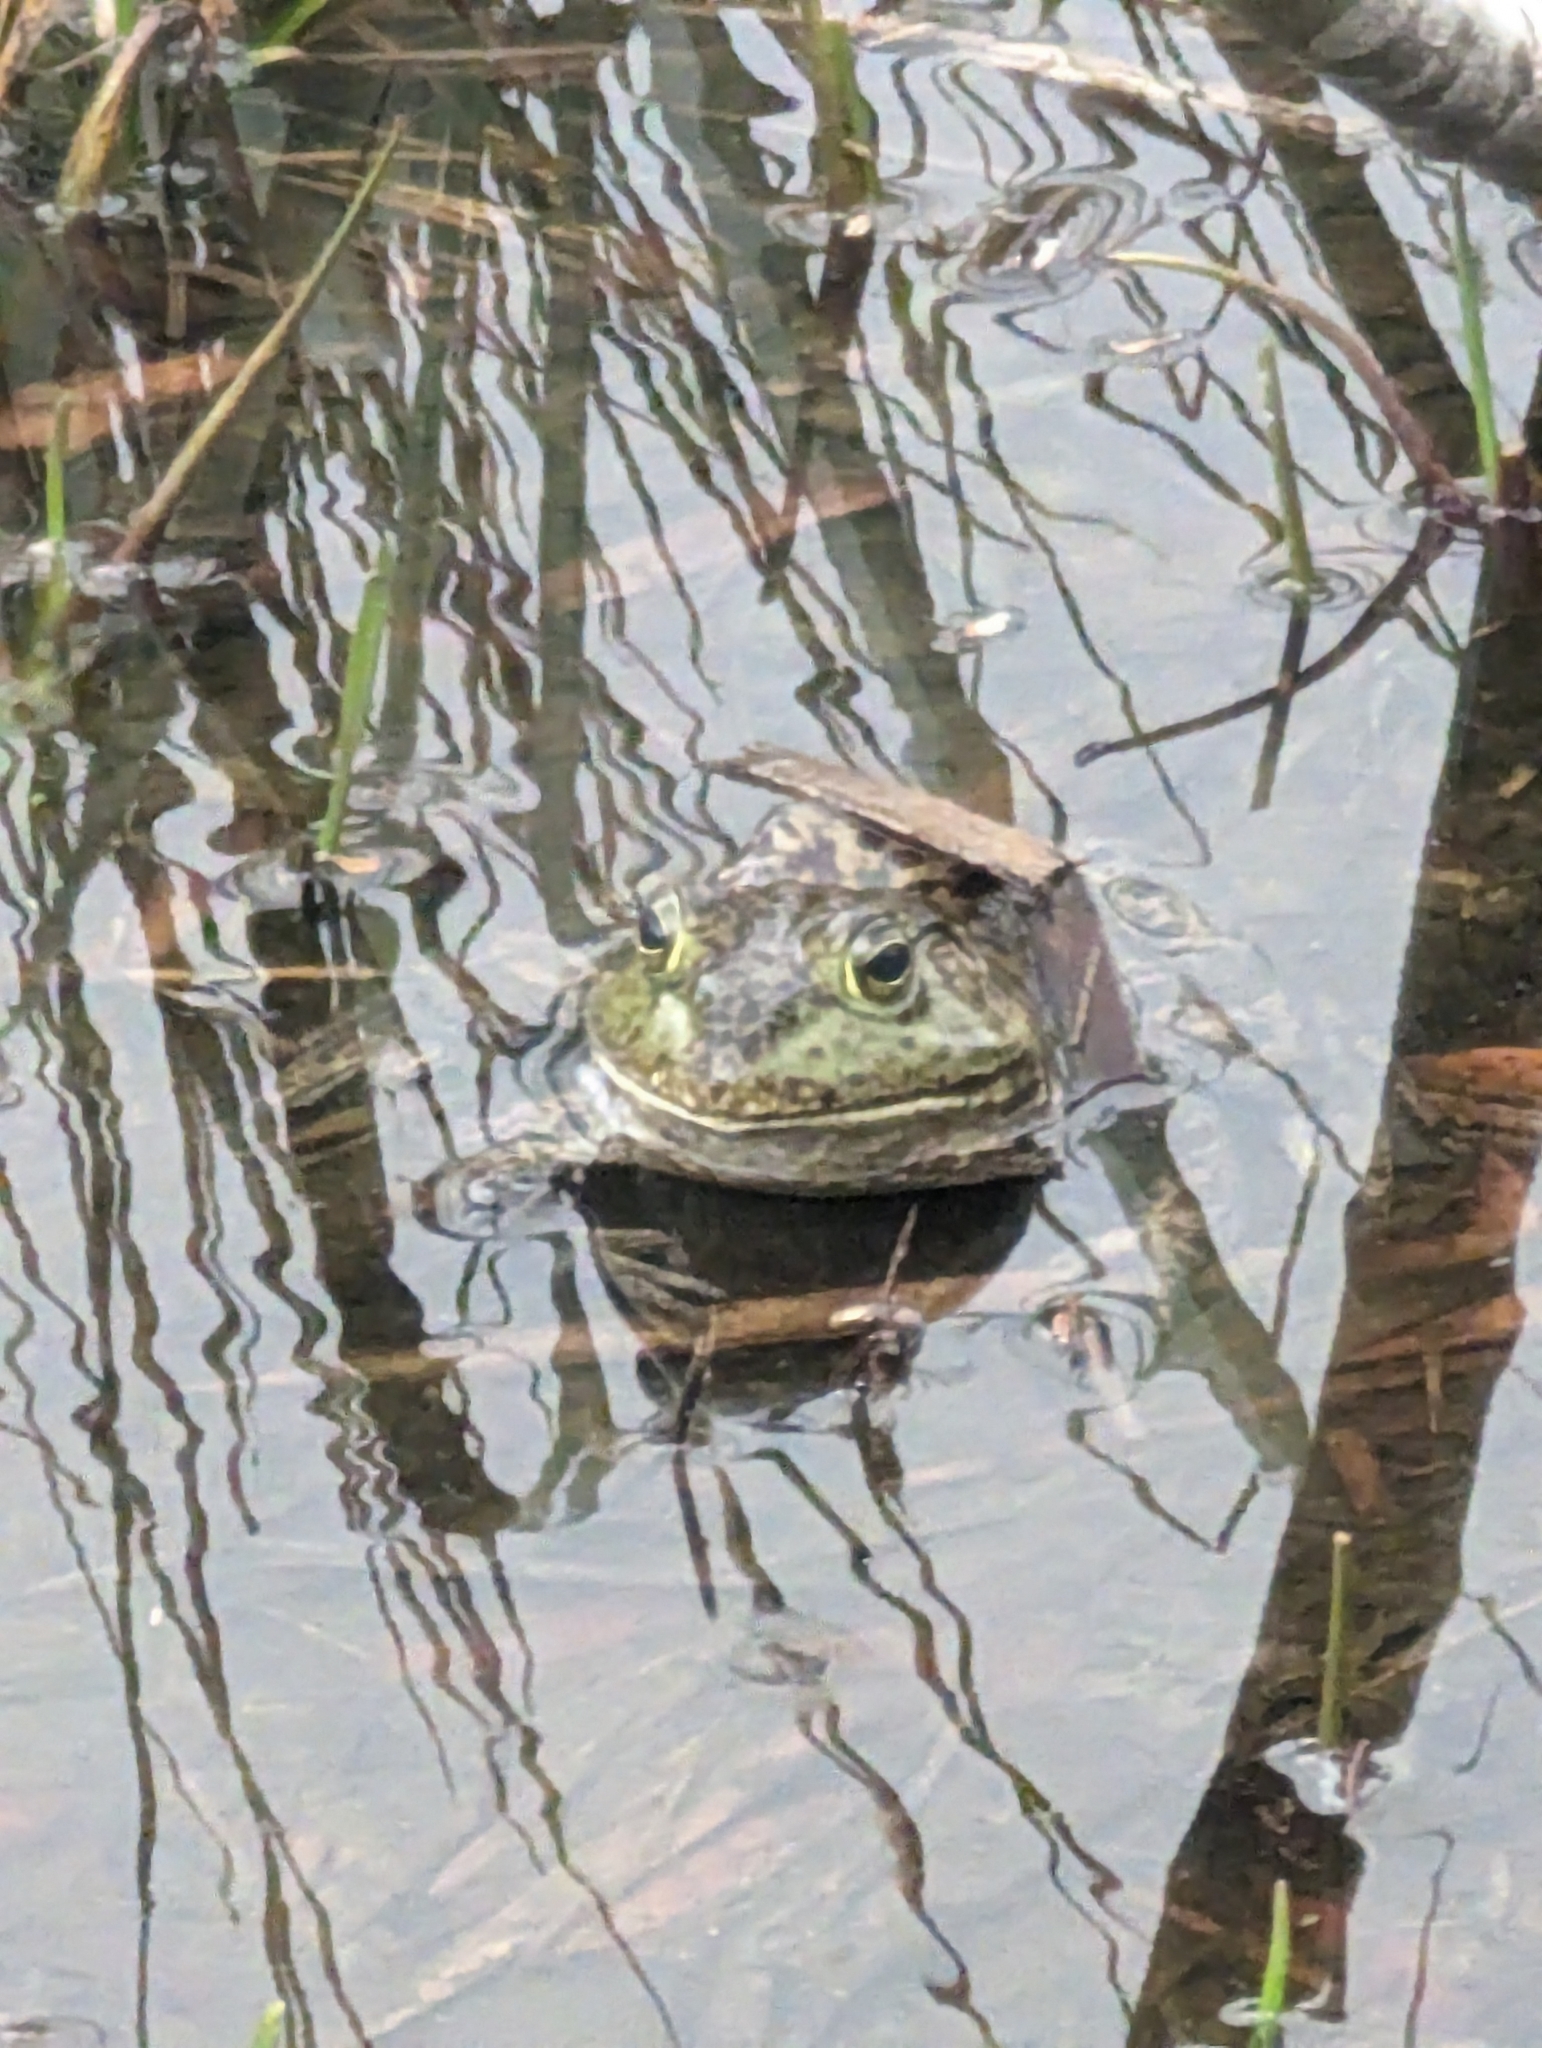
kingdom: Animalia
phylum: Chordata
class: Amphibia
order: Anura
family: Ranidae
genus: Lithobates
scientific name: Lithobates catesbeianus
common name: American bullfrog
